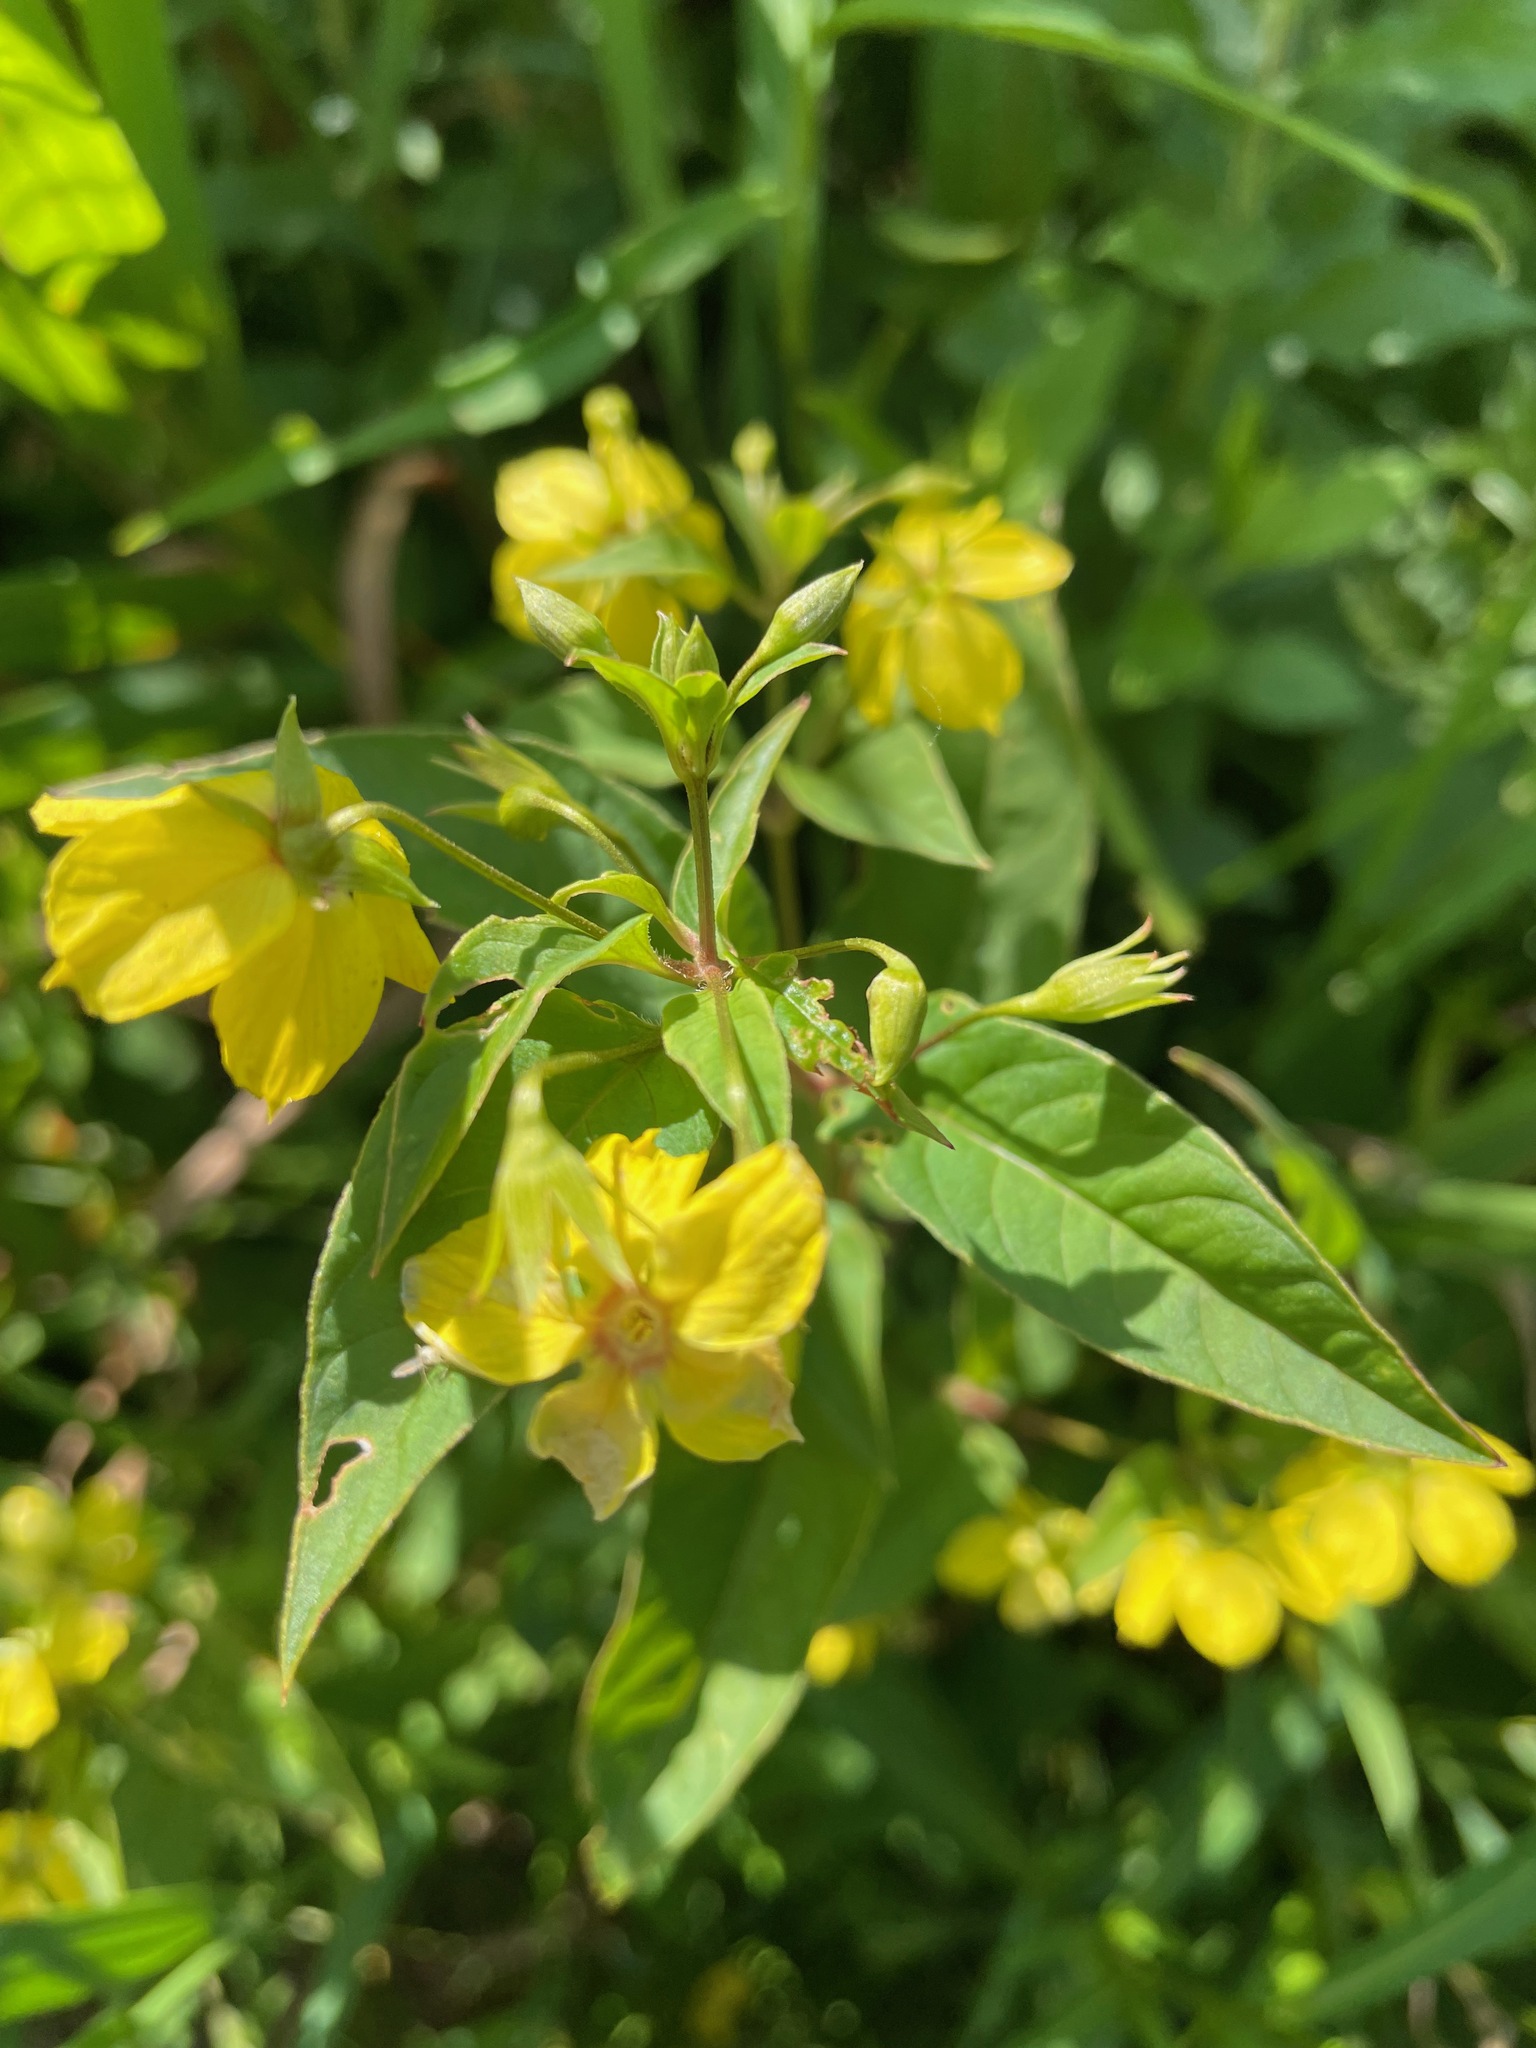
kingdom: Plantae
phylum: Tracheophyta
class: Magnoliopsida
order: Ericales
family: Primulaceae
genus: Lysimachia
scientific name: Lysimachia ciliata
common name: Fringed loosestrife
